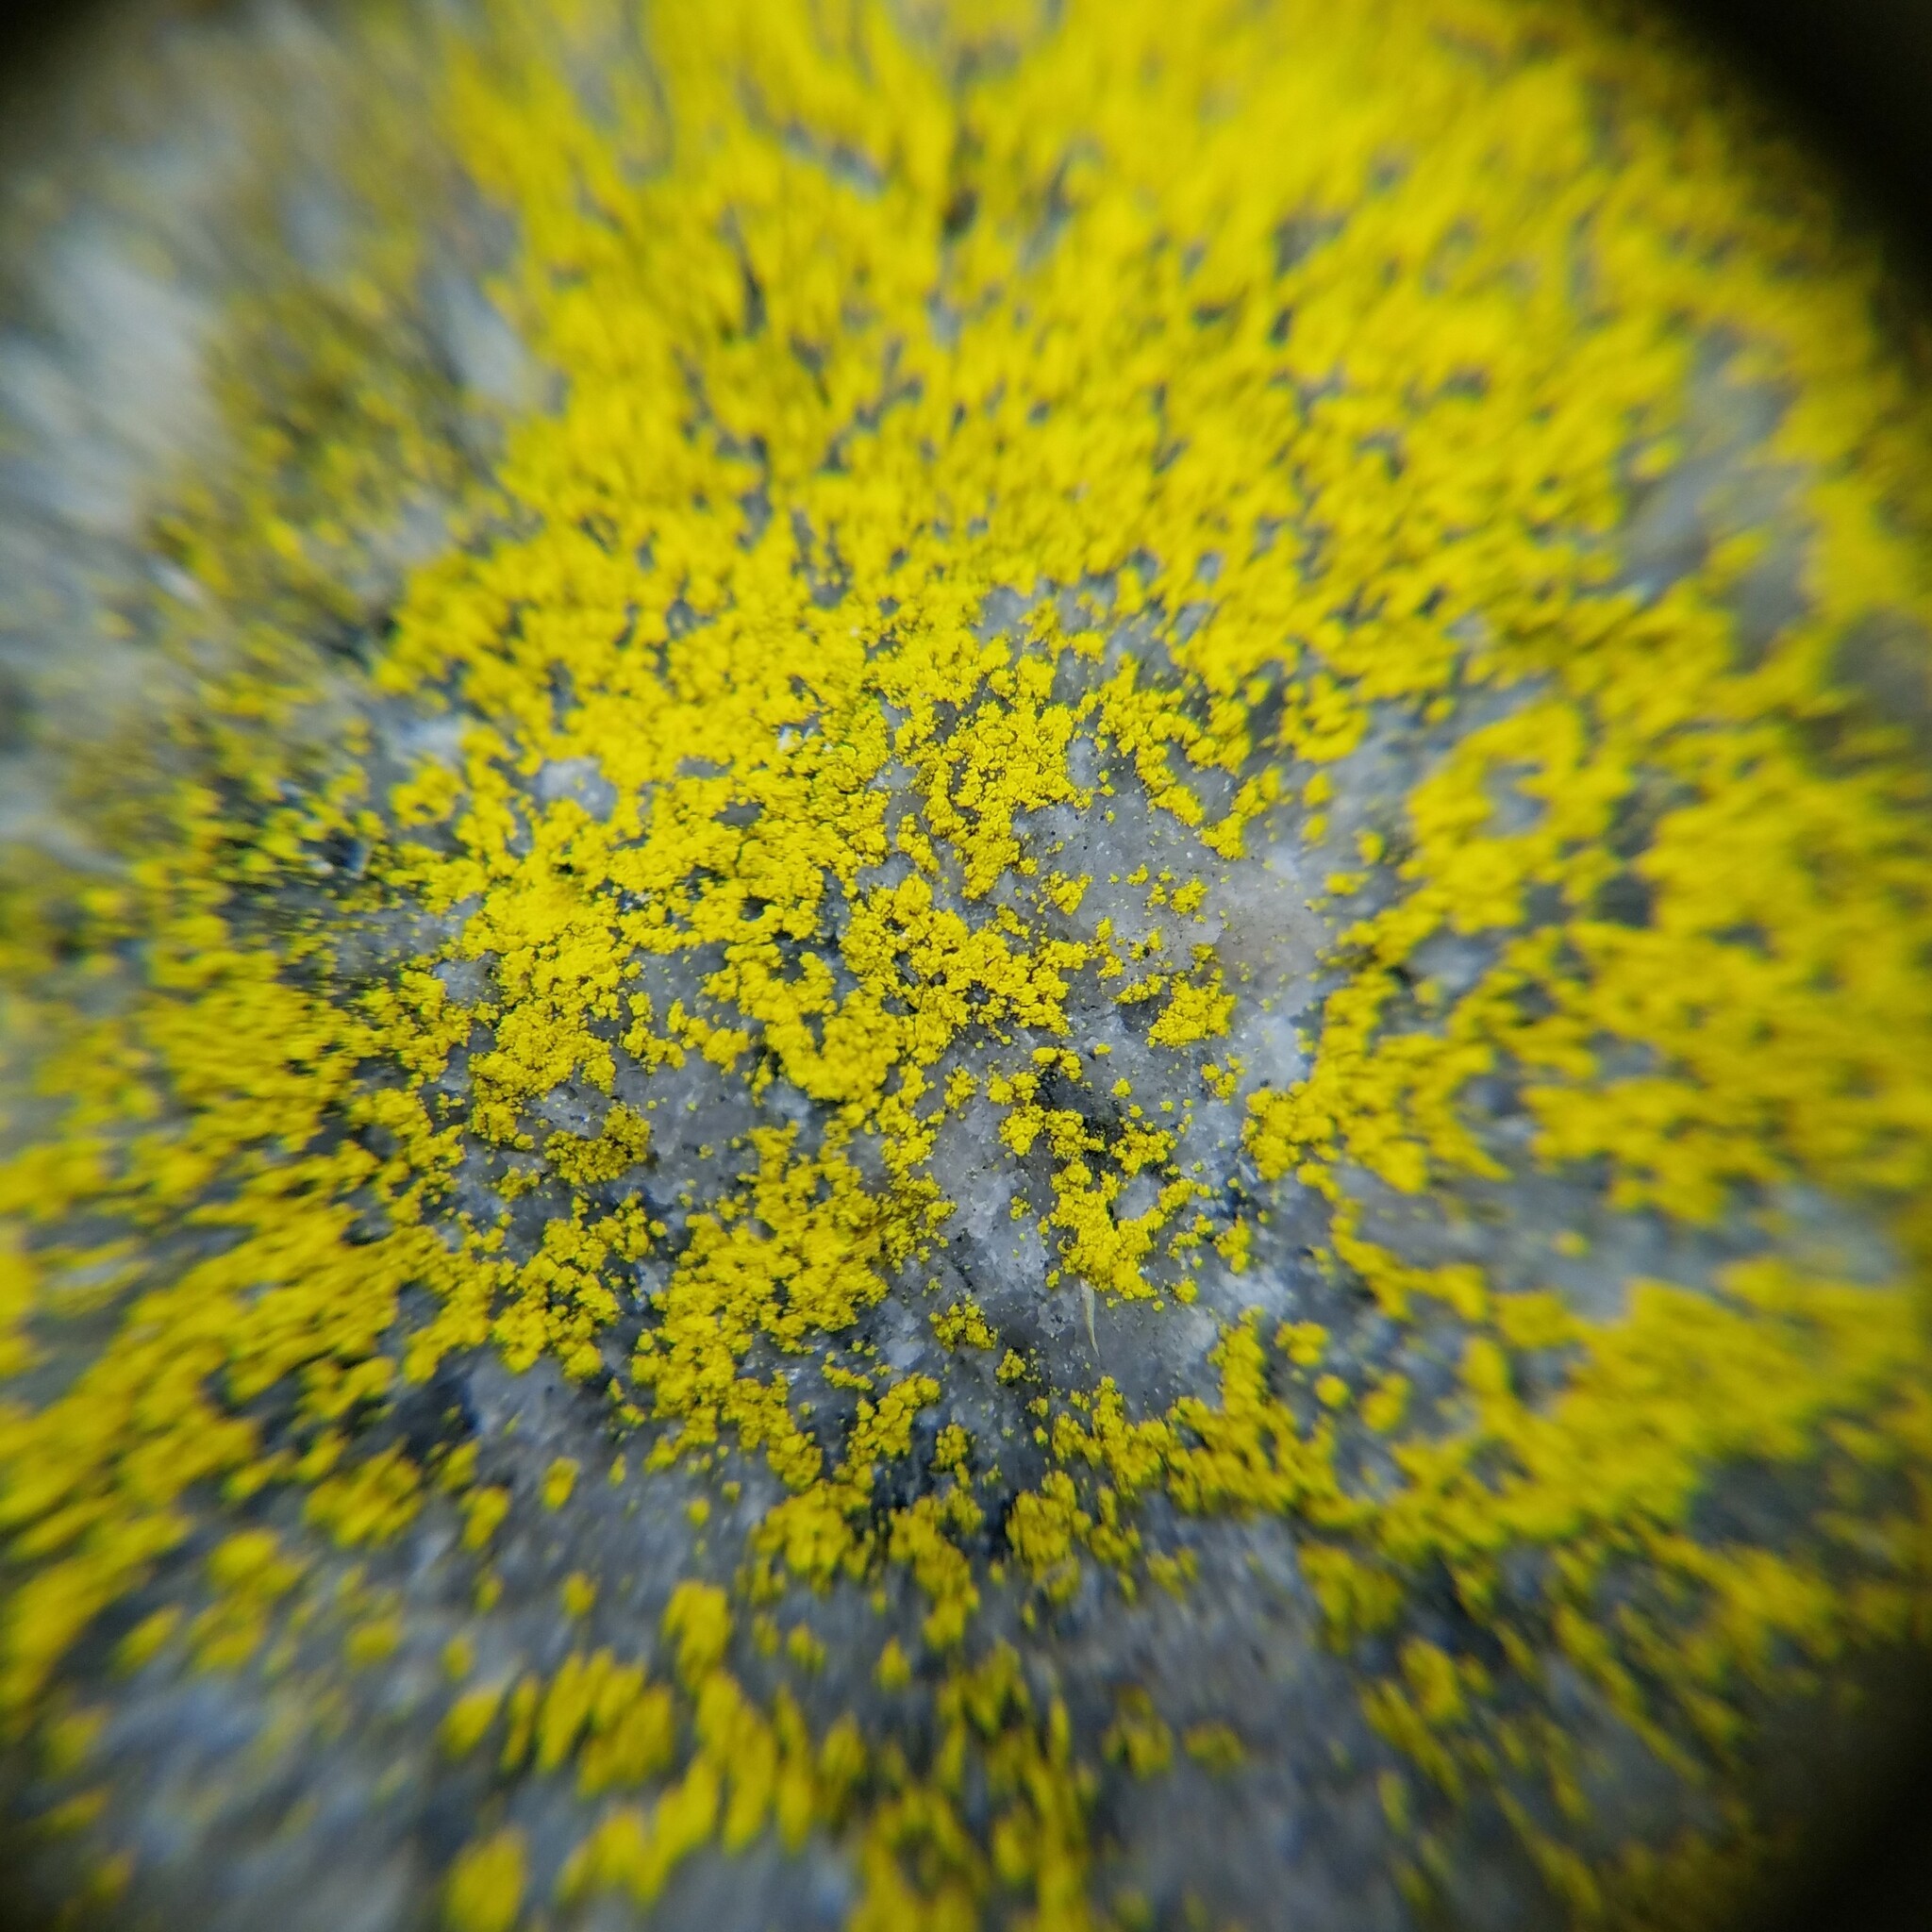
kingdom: Fungi
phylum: Ascomycota
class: Arthoniomycetes
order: Arthoniales
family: Chrysotrichaceae
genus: Chrysothrix
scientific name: Chrysothrix insulizans
